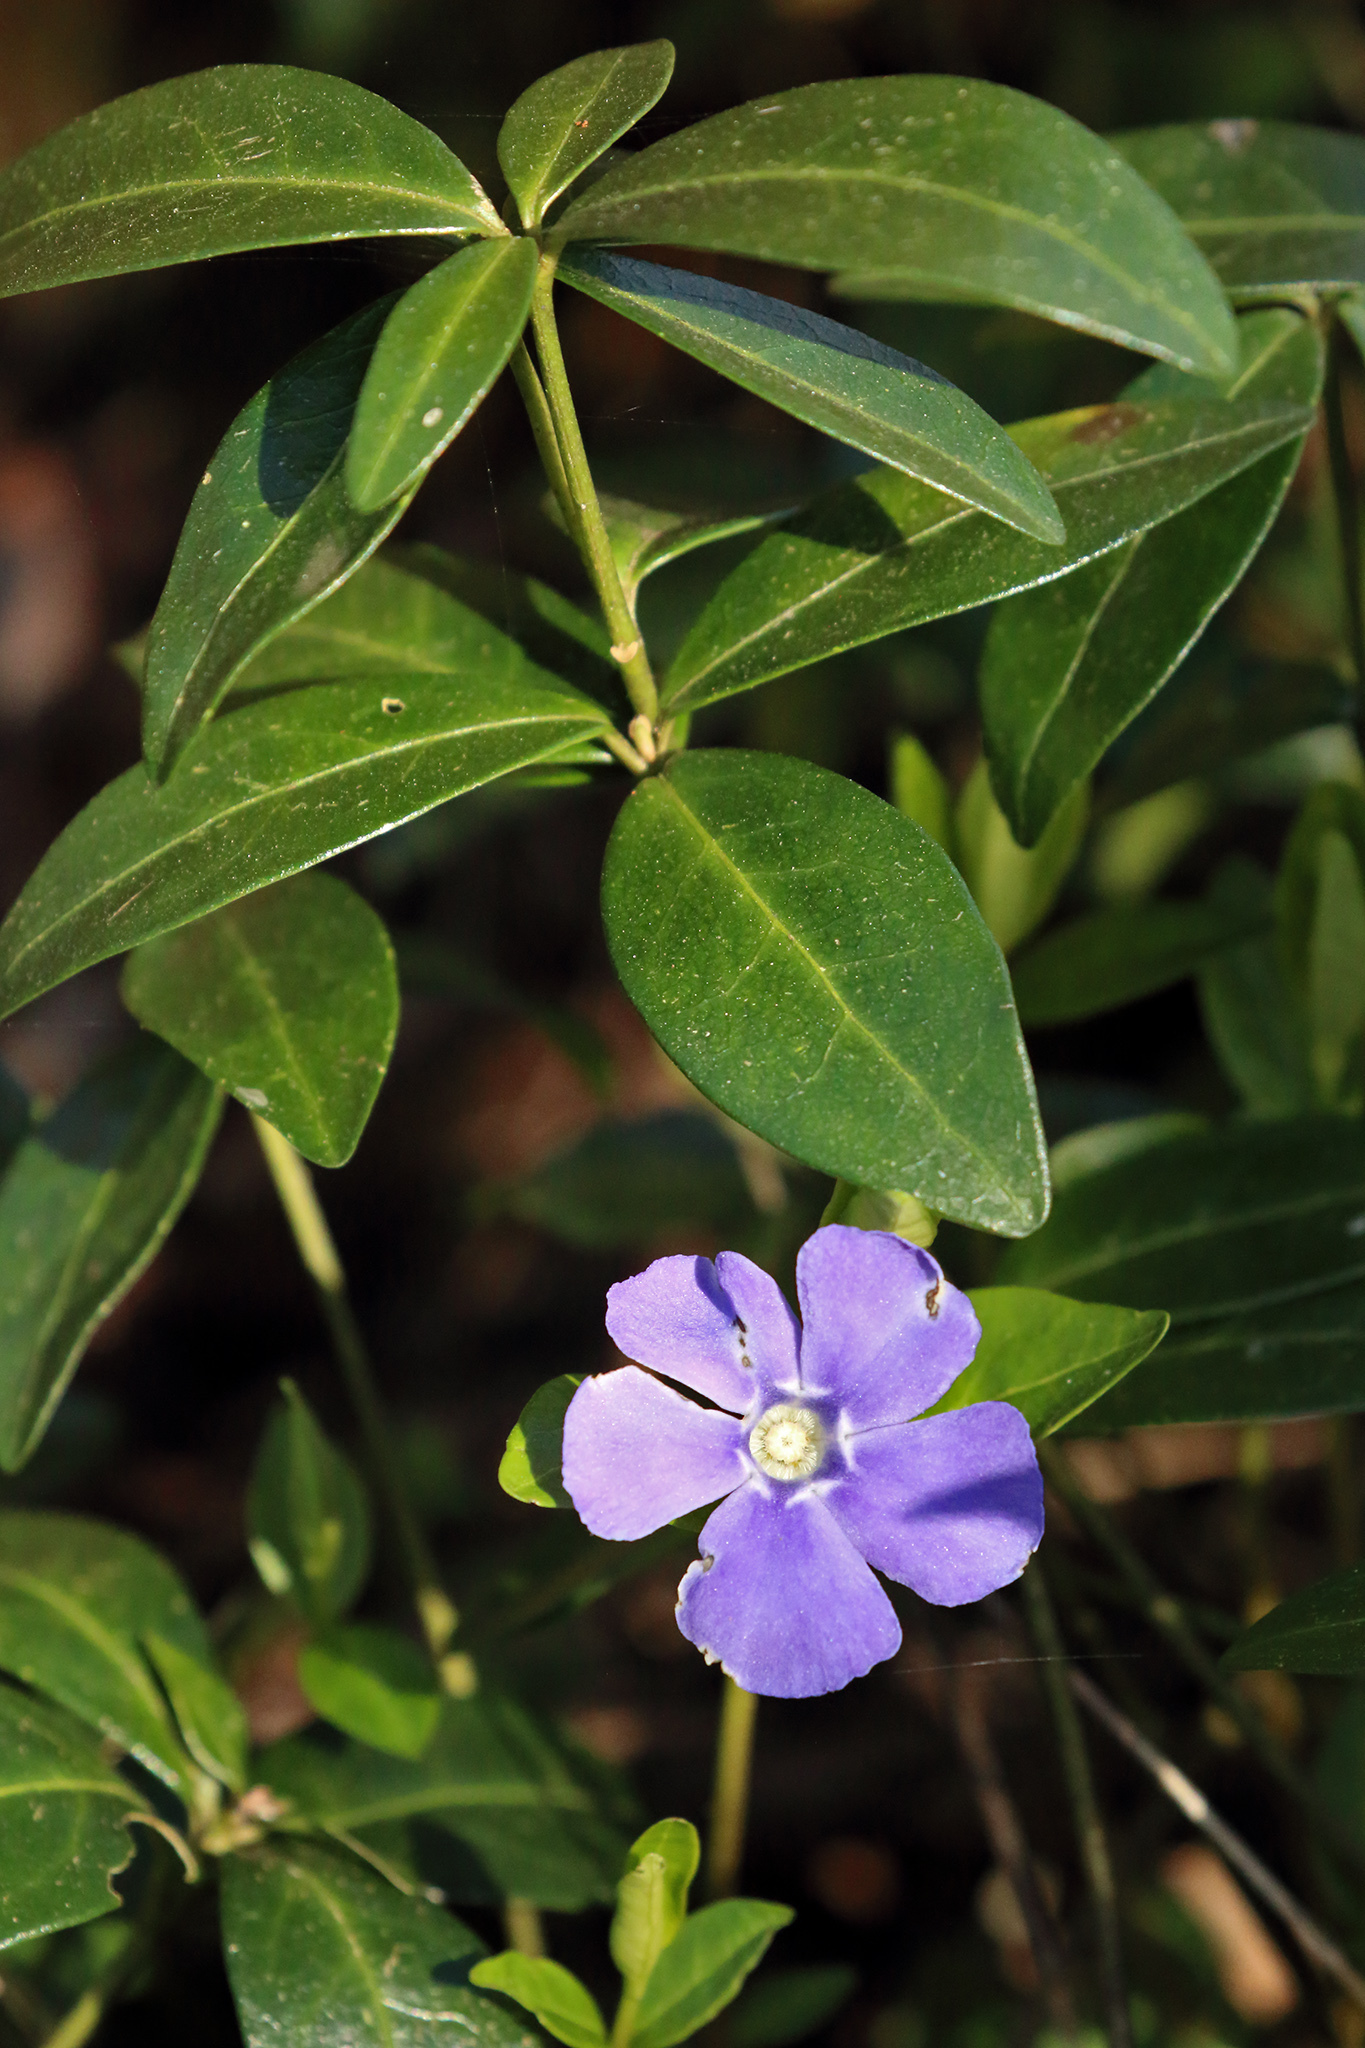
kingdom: Plantae
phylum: Tracheophyta
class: Magnoliopsida
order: Gentianales
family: Apocynaceae
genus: Vinca
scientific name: Vinca minor
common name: Lesser periwinkle
